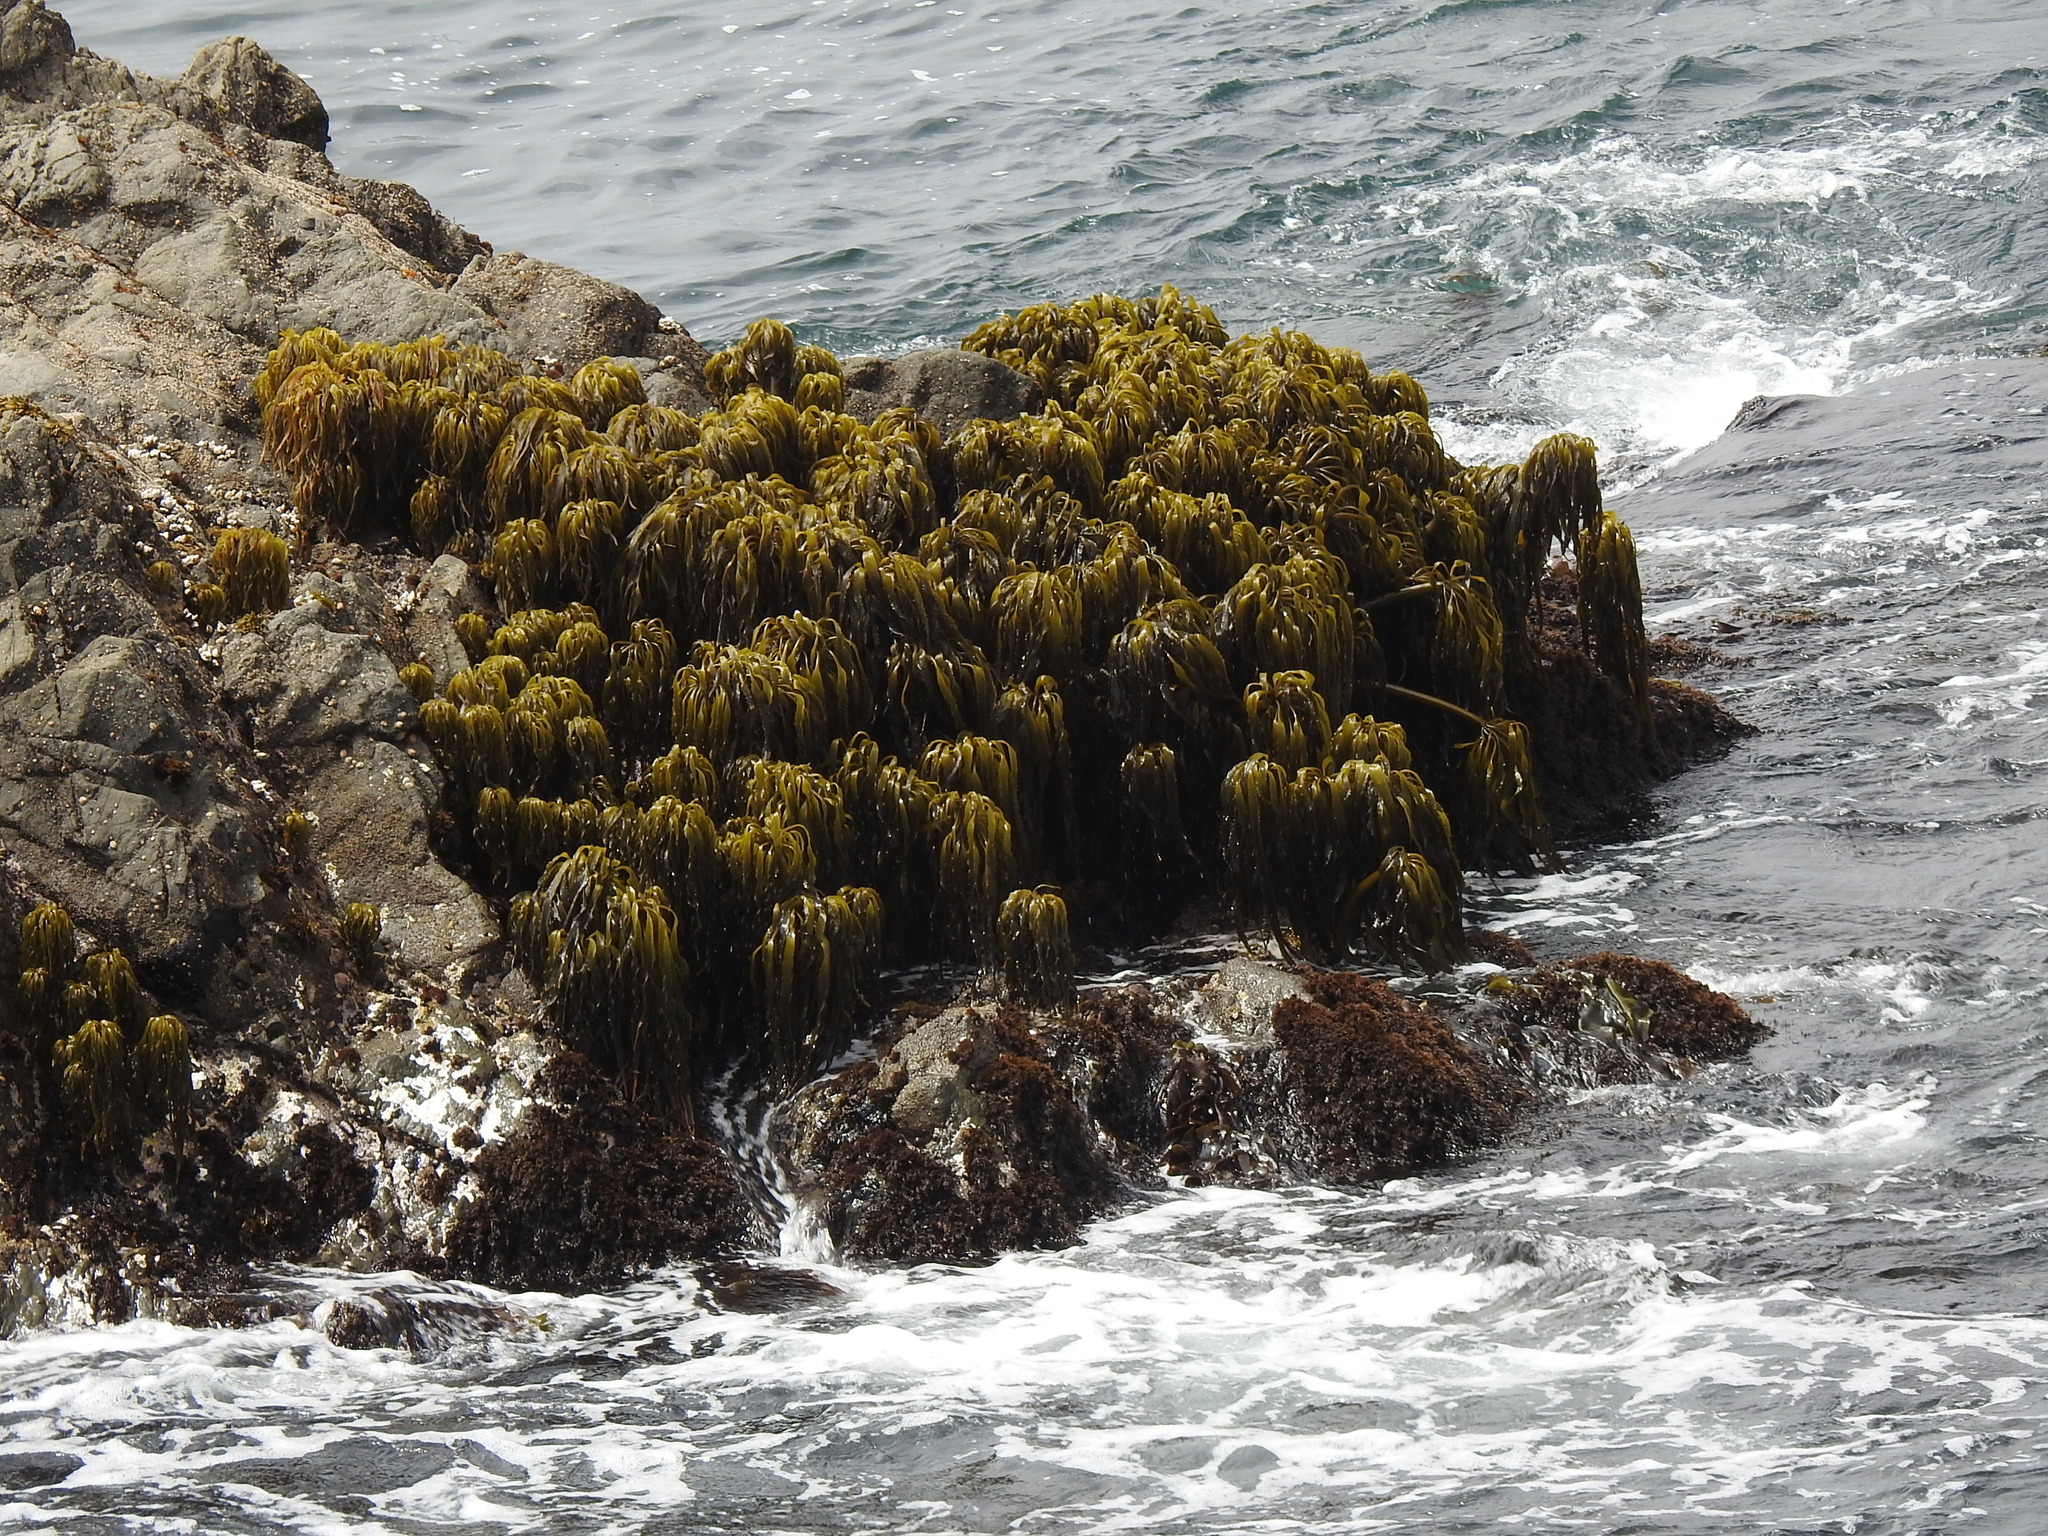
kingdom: Chromista
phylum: Ochrophyta
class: Phaeophyceae
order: Laminariales
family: Laminariaceae
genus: Postelsia
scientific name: Postelsia palmiformis
